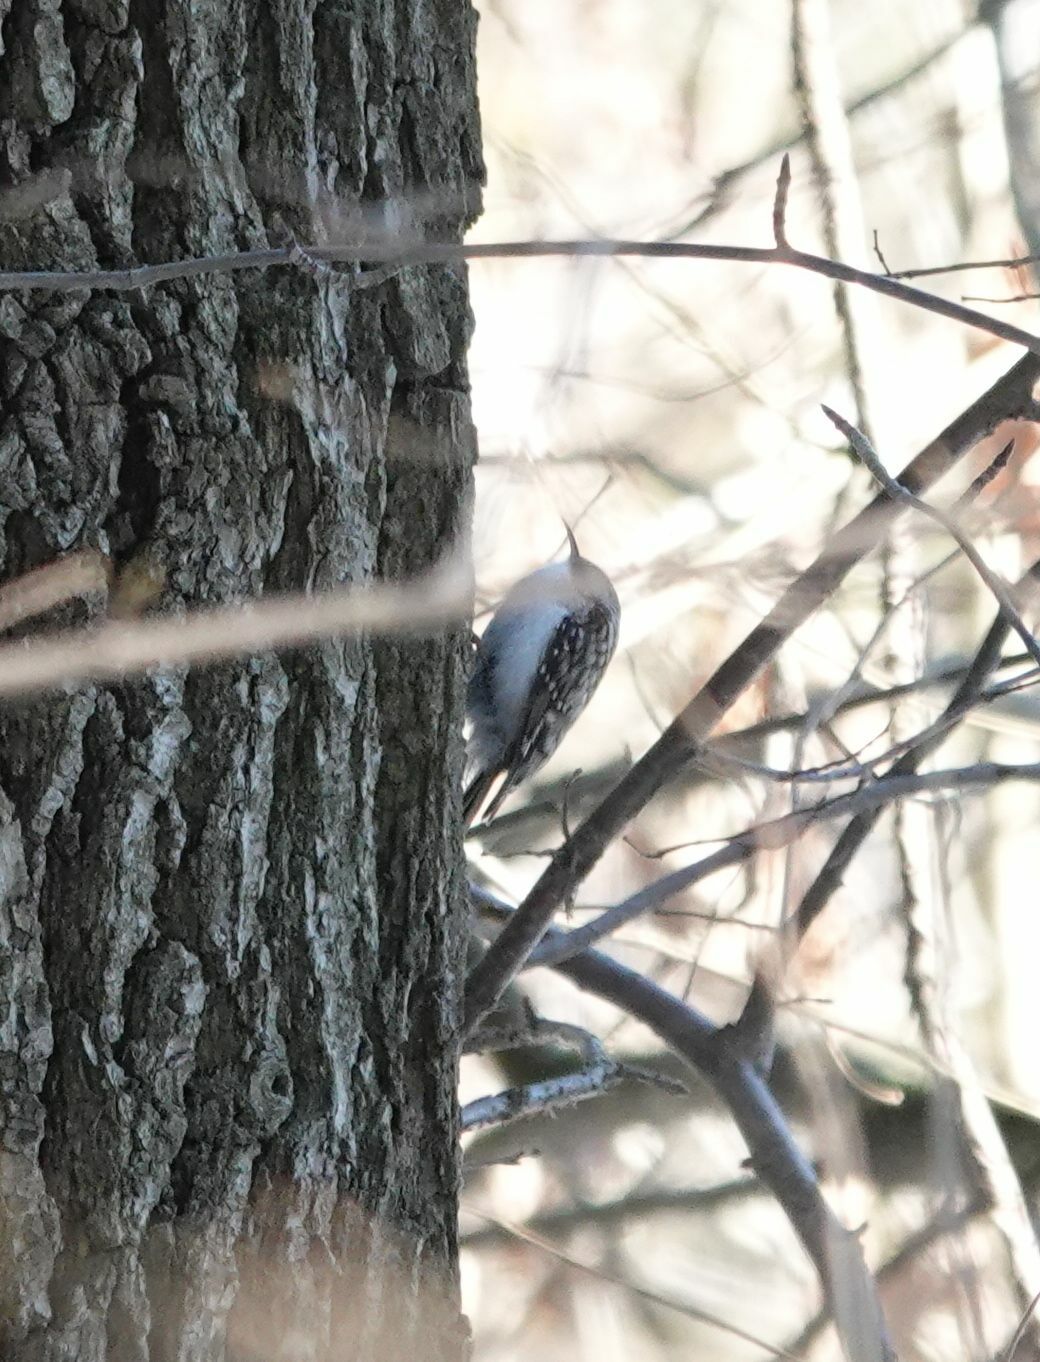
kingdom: Animalia
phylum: Chordata
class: Aves
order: Passeriformes
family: Certhiidae
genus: Certhia
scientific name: Certhia familiaris
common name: Eurasian treecreeper
